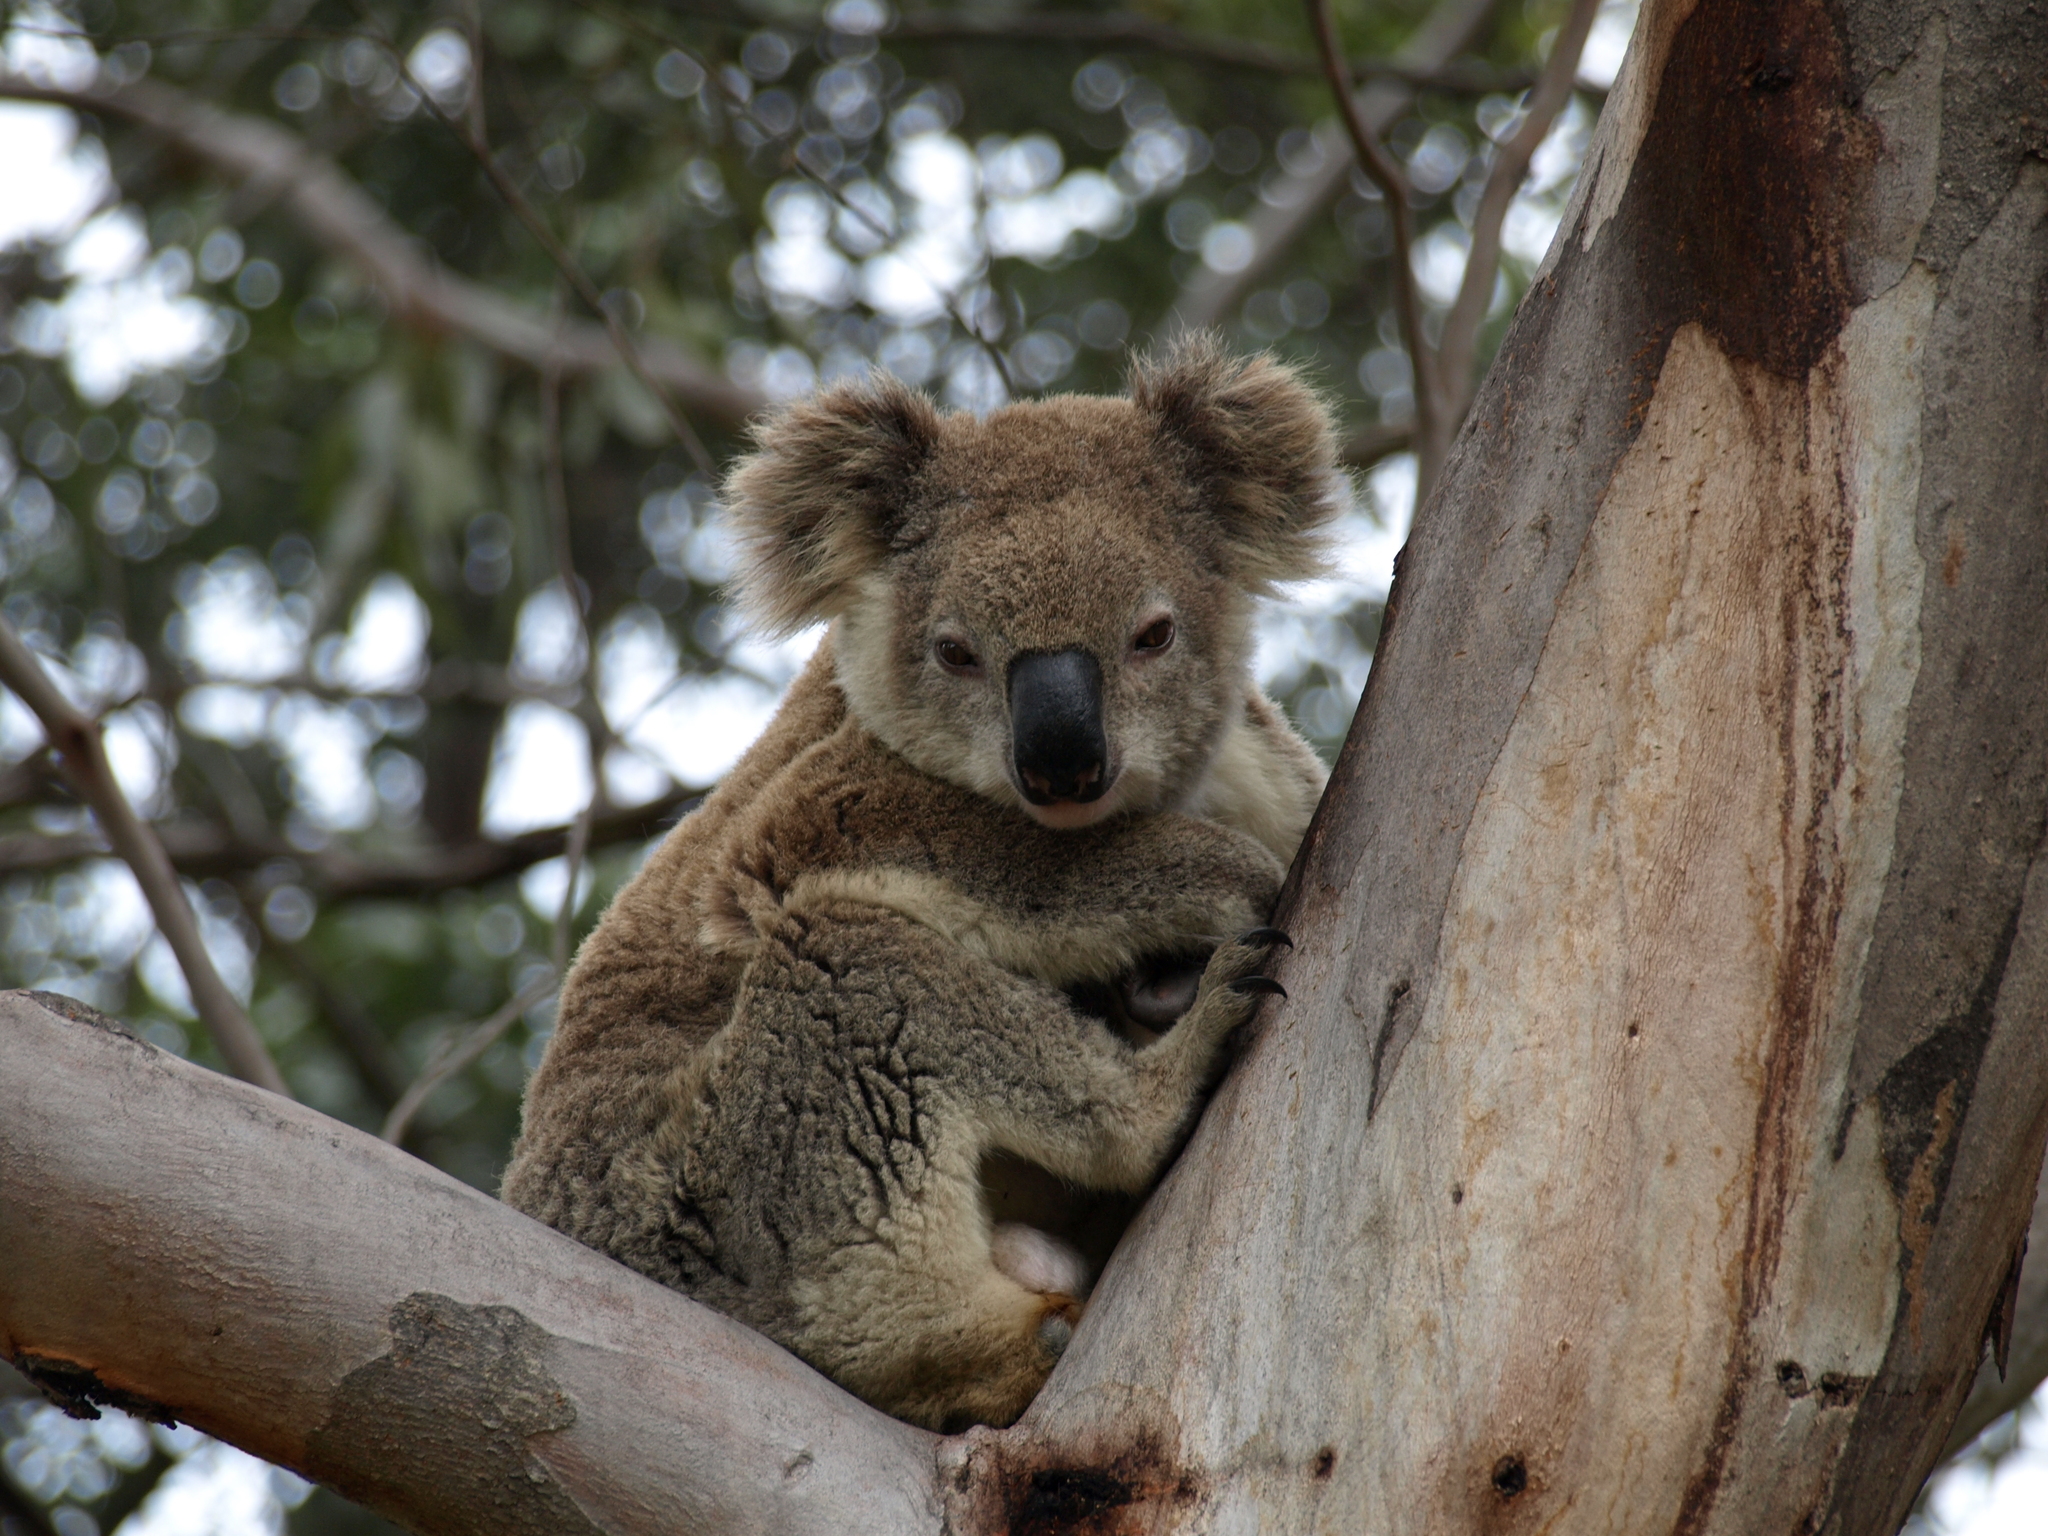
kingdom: Animalia
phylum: Chordata
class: Mammalia
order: Diprotodontia
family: Phascolarctidae
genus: Phascolarctos
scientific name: Phascolarctos cinereus
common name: Koala
